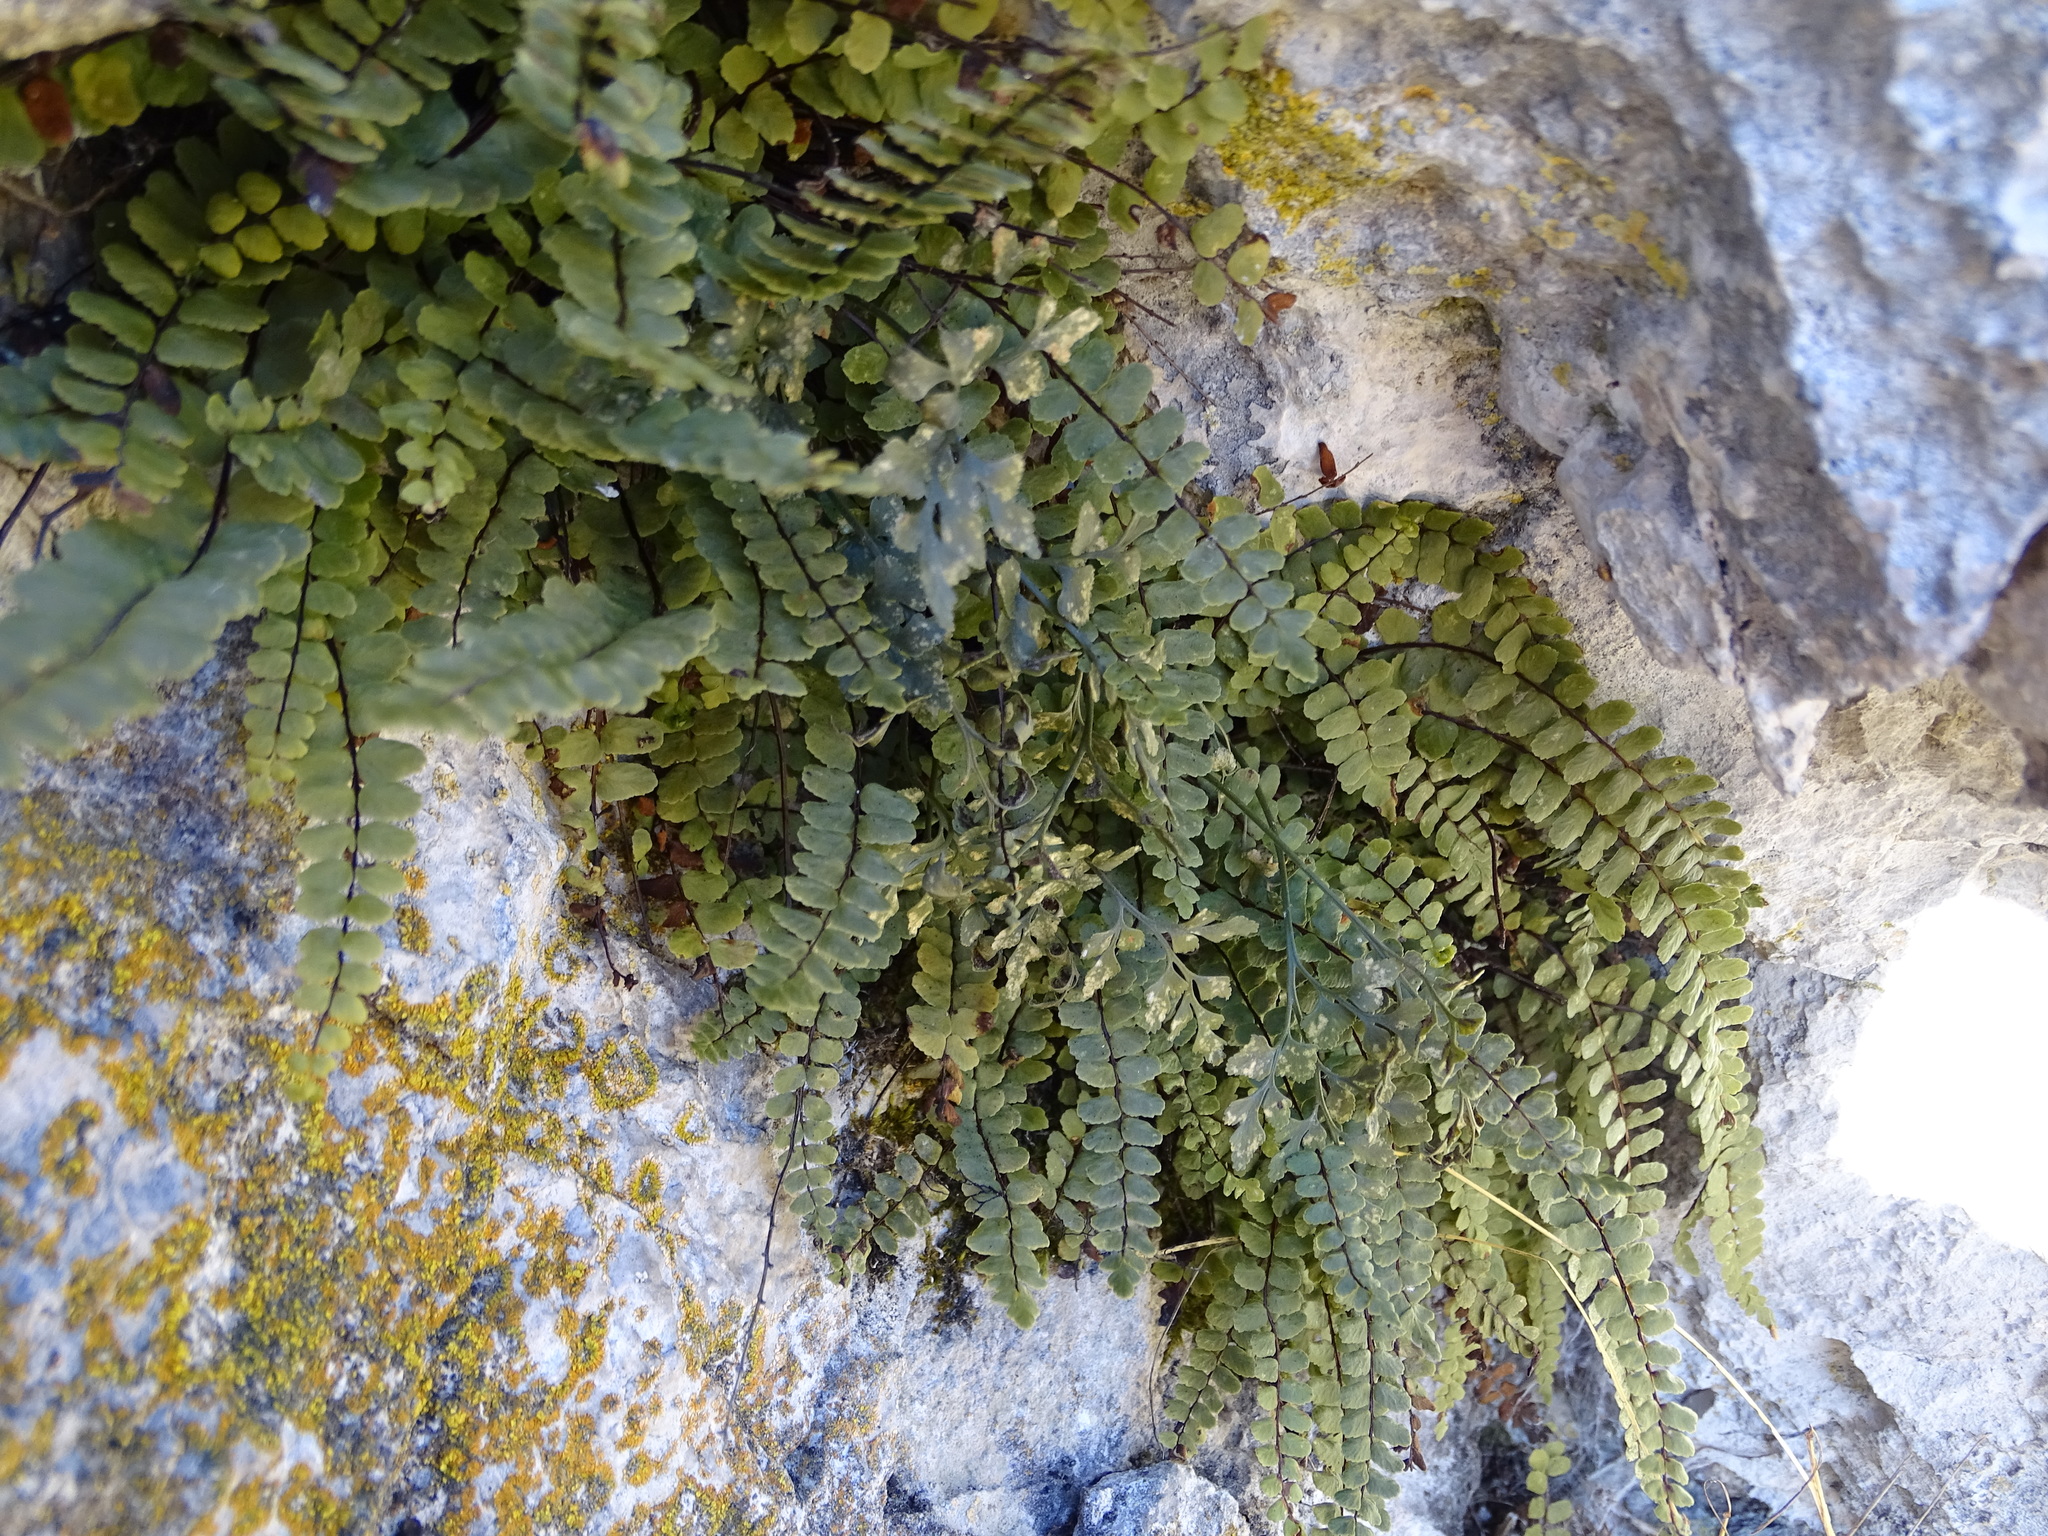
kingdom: Plantae
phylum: Tracheophyta
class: Polypodiopsida
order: Polypodiales
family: Aspleniaceae
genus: Asplenium
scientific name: Asplenium trichomanes
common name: Maidenhair spleenwort
